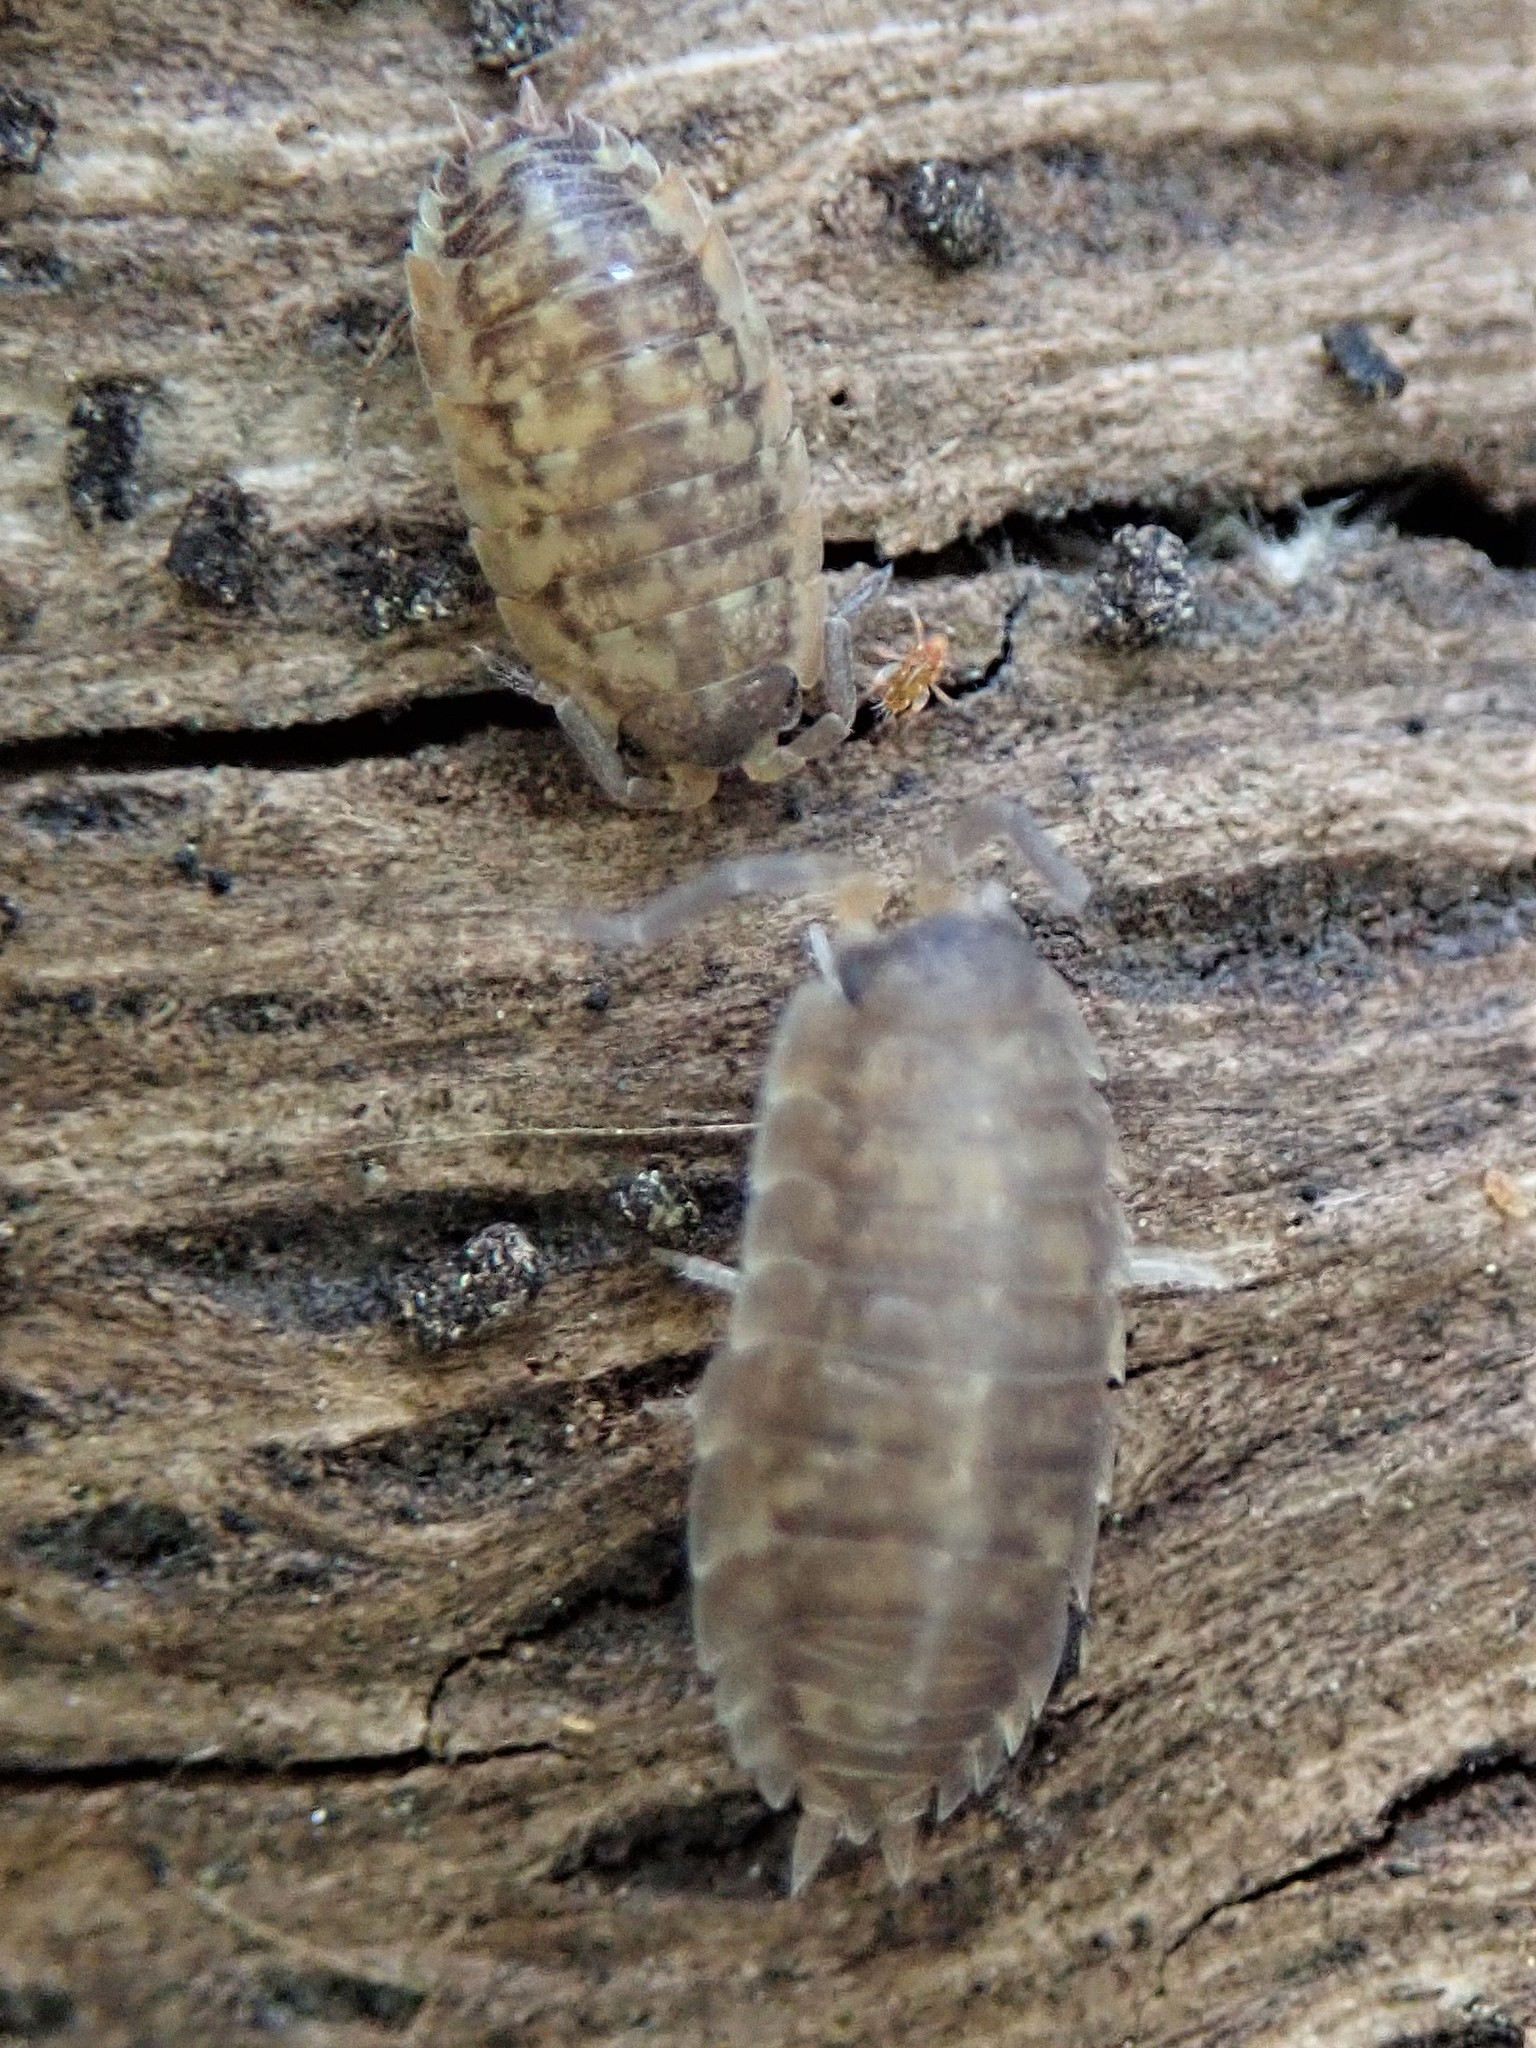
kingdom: Animalia
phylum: Arthropoda
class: Malacostraca
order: Isopoda
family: Porcellionidae
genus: Porcellio
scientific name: Porcellio scaber
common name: Common rough woodlouse
